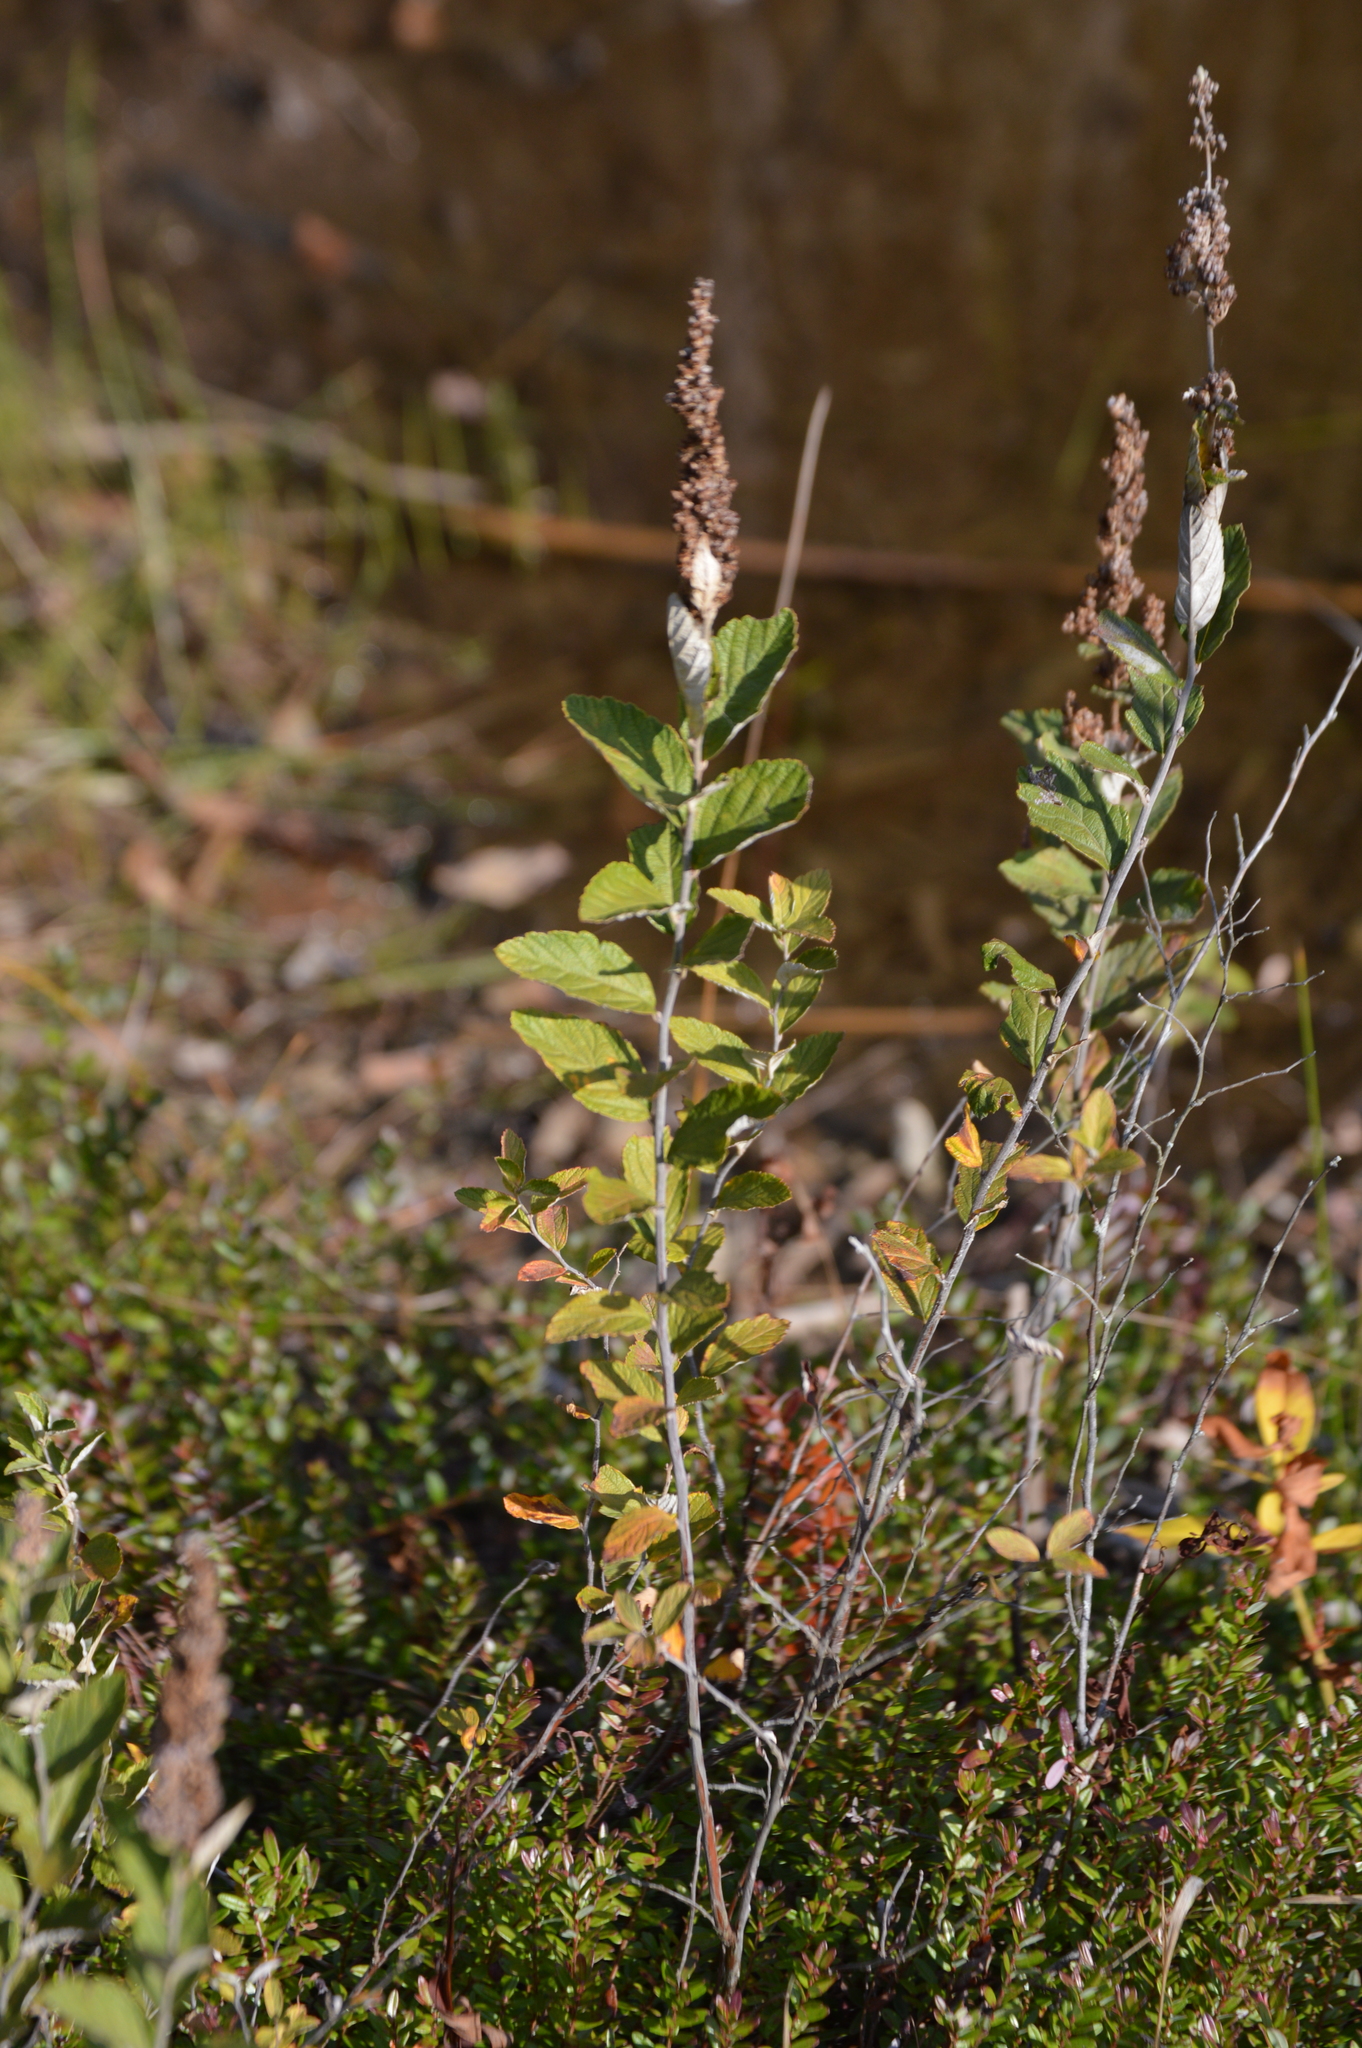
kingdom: Plantae
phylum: Tracheophyta
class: Magnoliopsida
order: Rosales
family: Rosaceae
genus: Spiraea
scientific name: Spiraea tomentosa
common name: Hardhack
